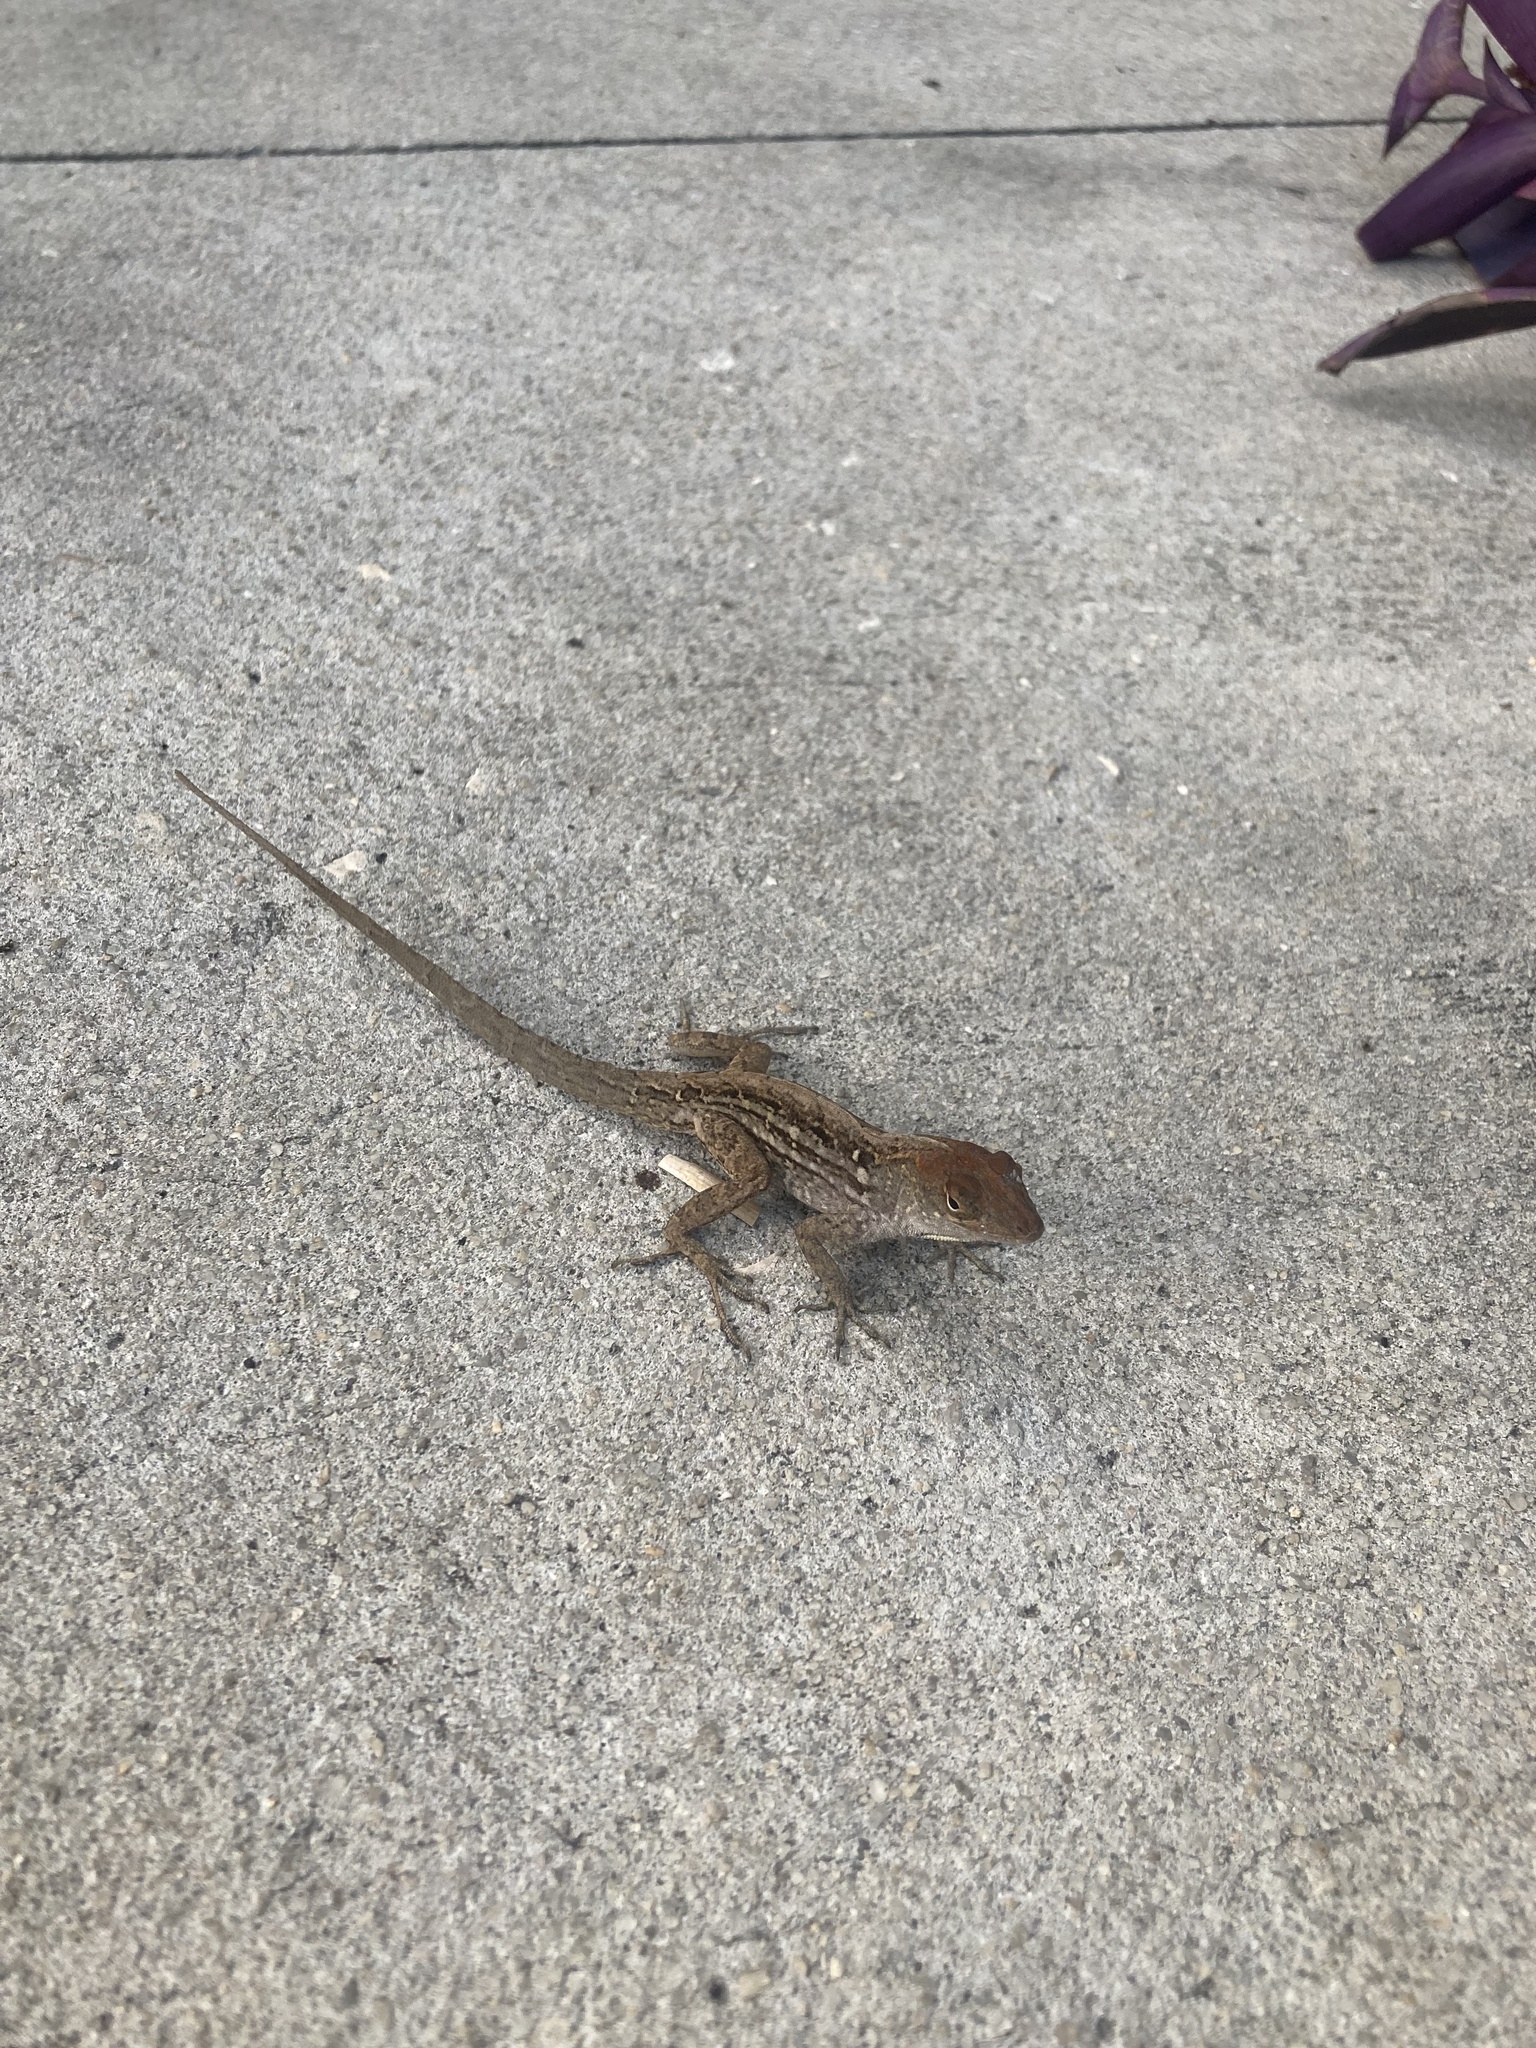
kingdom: Animalia
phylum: Chordata
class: Squamata
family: Dactyloidae
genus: Anolis
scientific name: Anolis sagrei
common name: Brown anole
